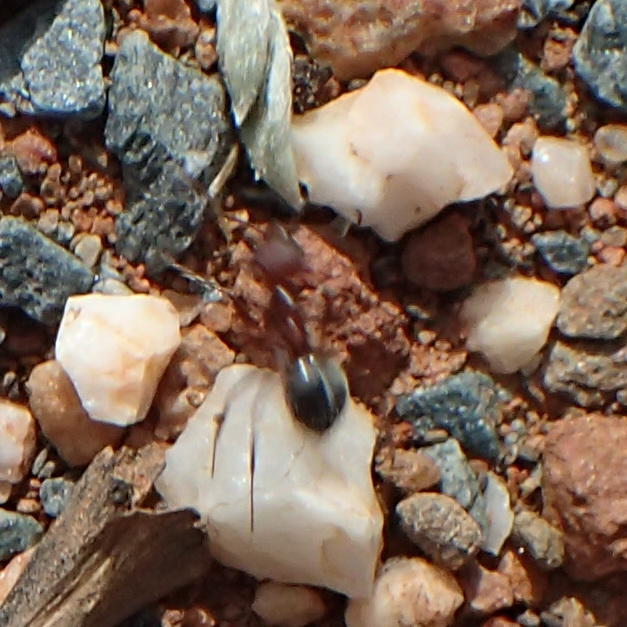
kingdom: Animalia
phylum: Arthropoda
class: Insecta
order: Hymenoptera
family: Formicidae
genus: Anoplolepis
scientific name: Anoplolepis steingroeveri
